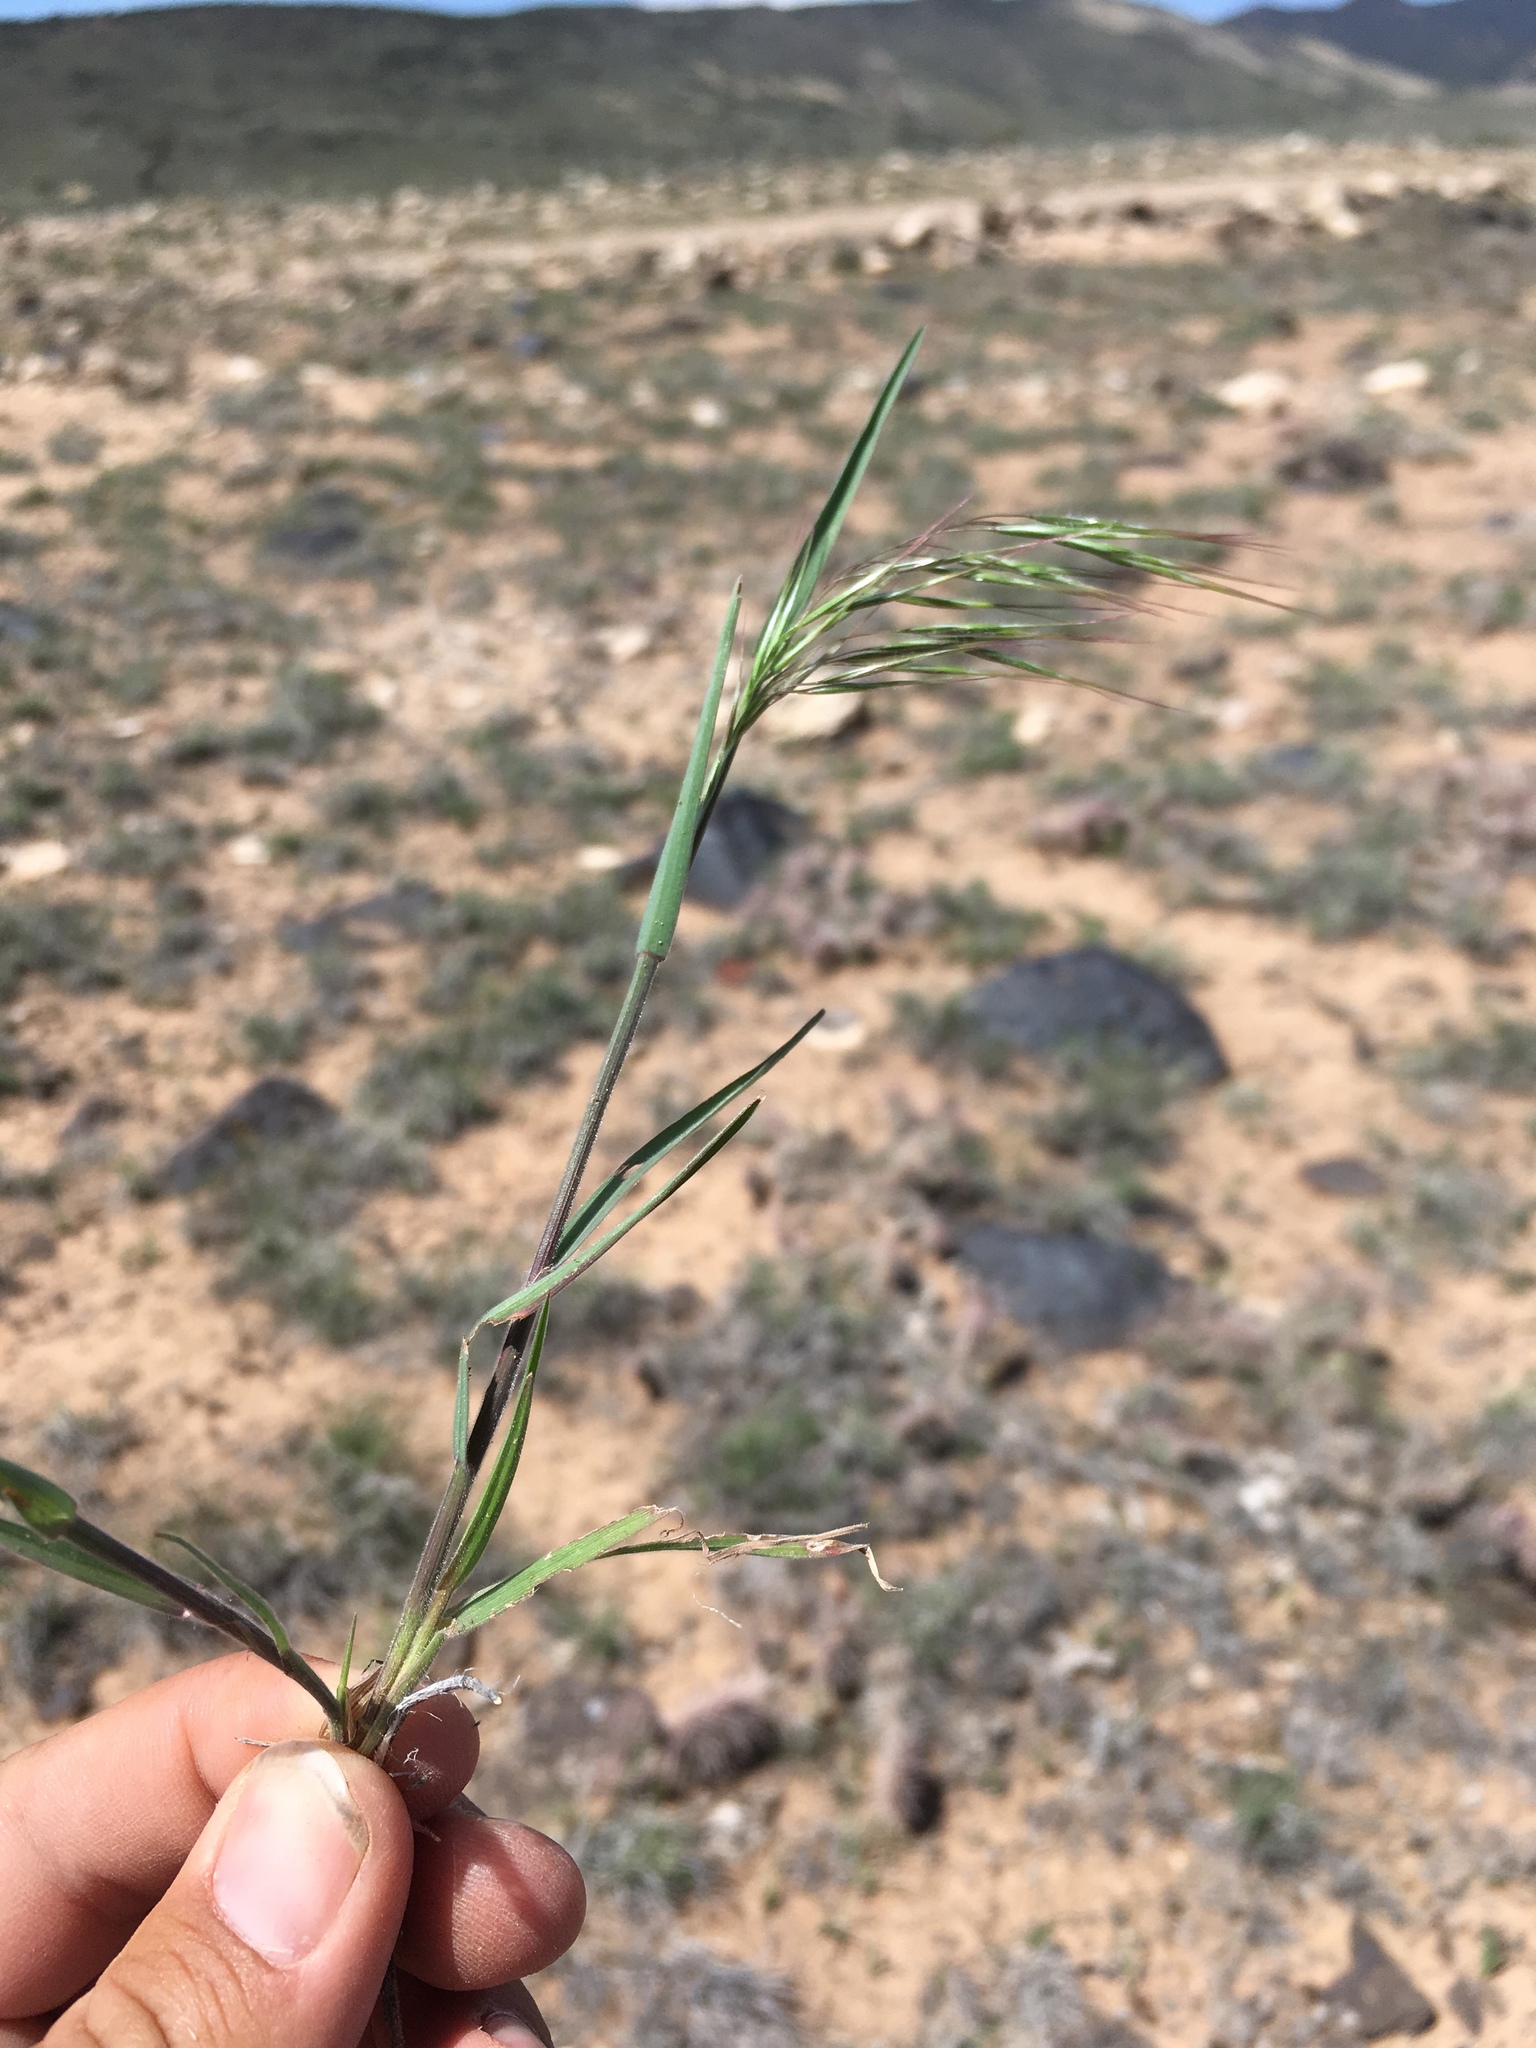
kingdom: Plantae
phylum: Tracheophyta
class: Liliopsida
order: Poales
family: Poaceae
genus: Bromus
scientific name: Bromus tectorum
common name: Cheatgrass
